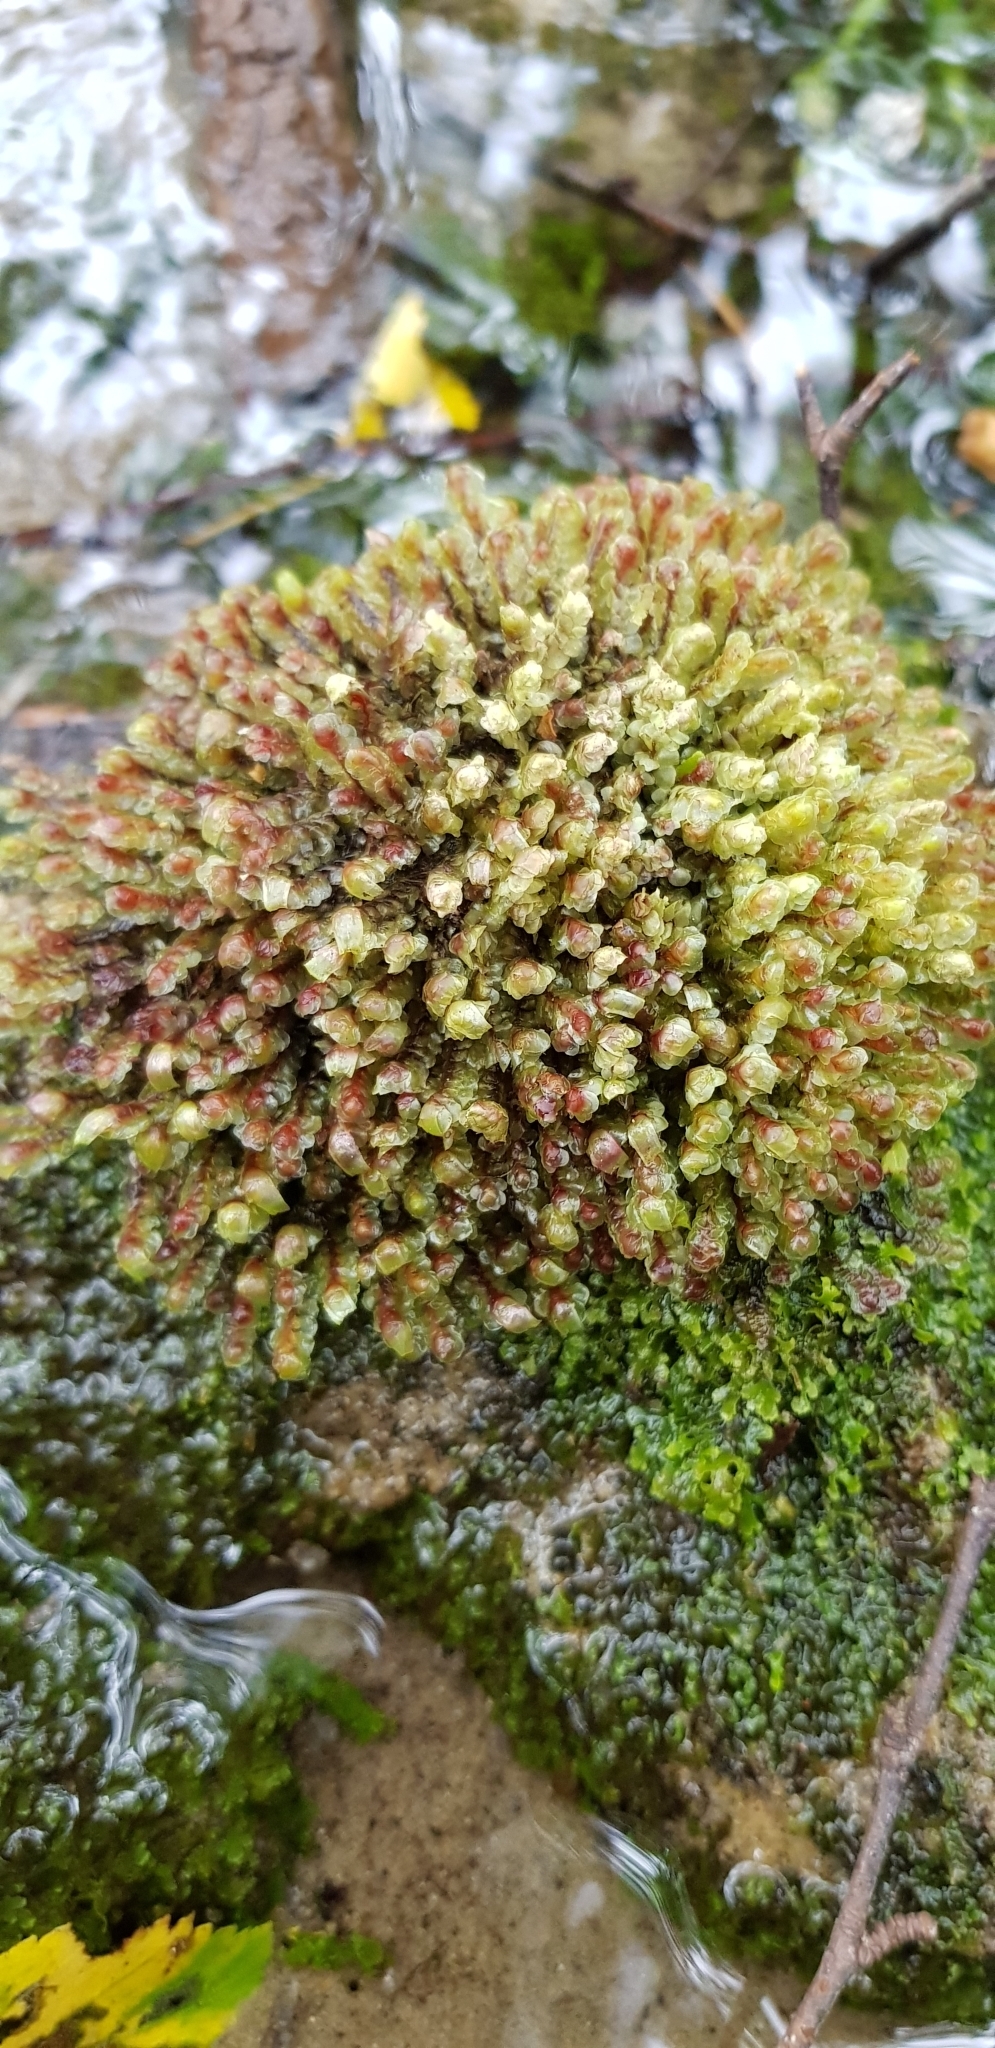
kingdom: Plantae
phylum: Marchantiophyta
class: Jungermanniopsida
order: Jungermanniales
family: Scapaniaceae
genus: Scapania
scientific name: Scapania undulata
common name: Water earwort
